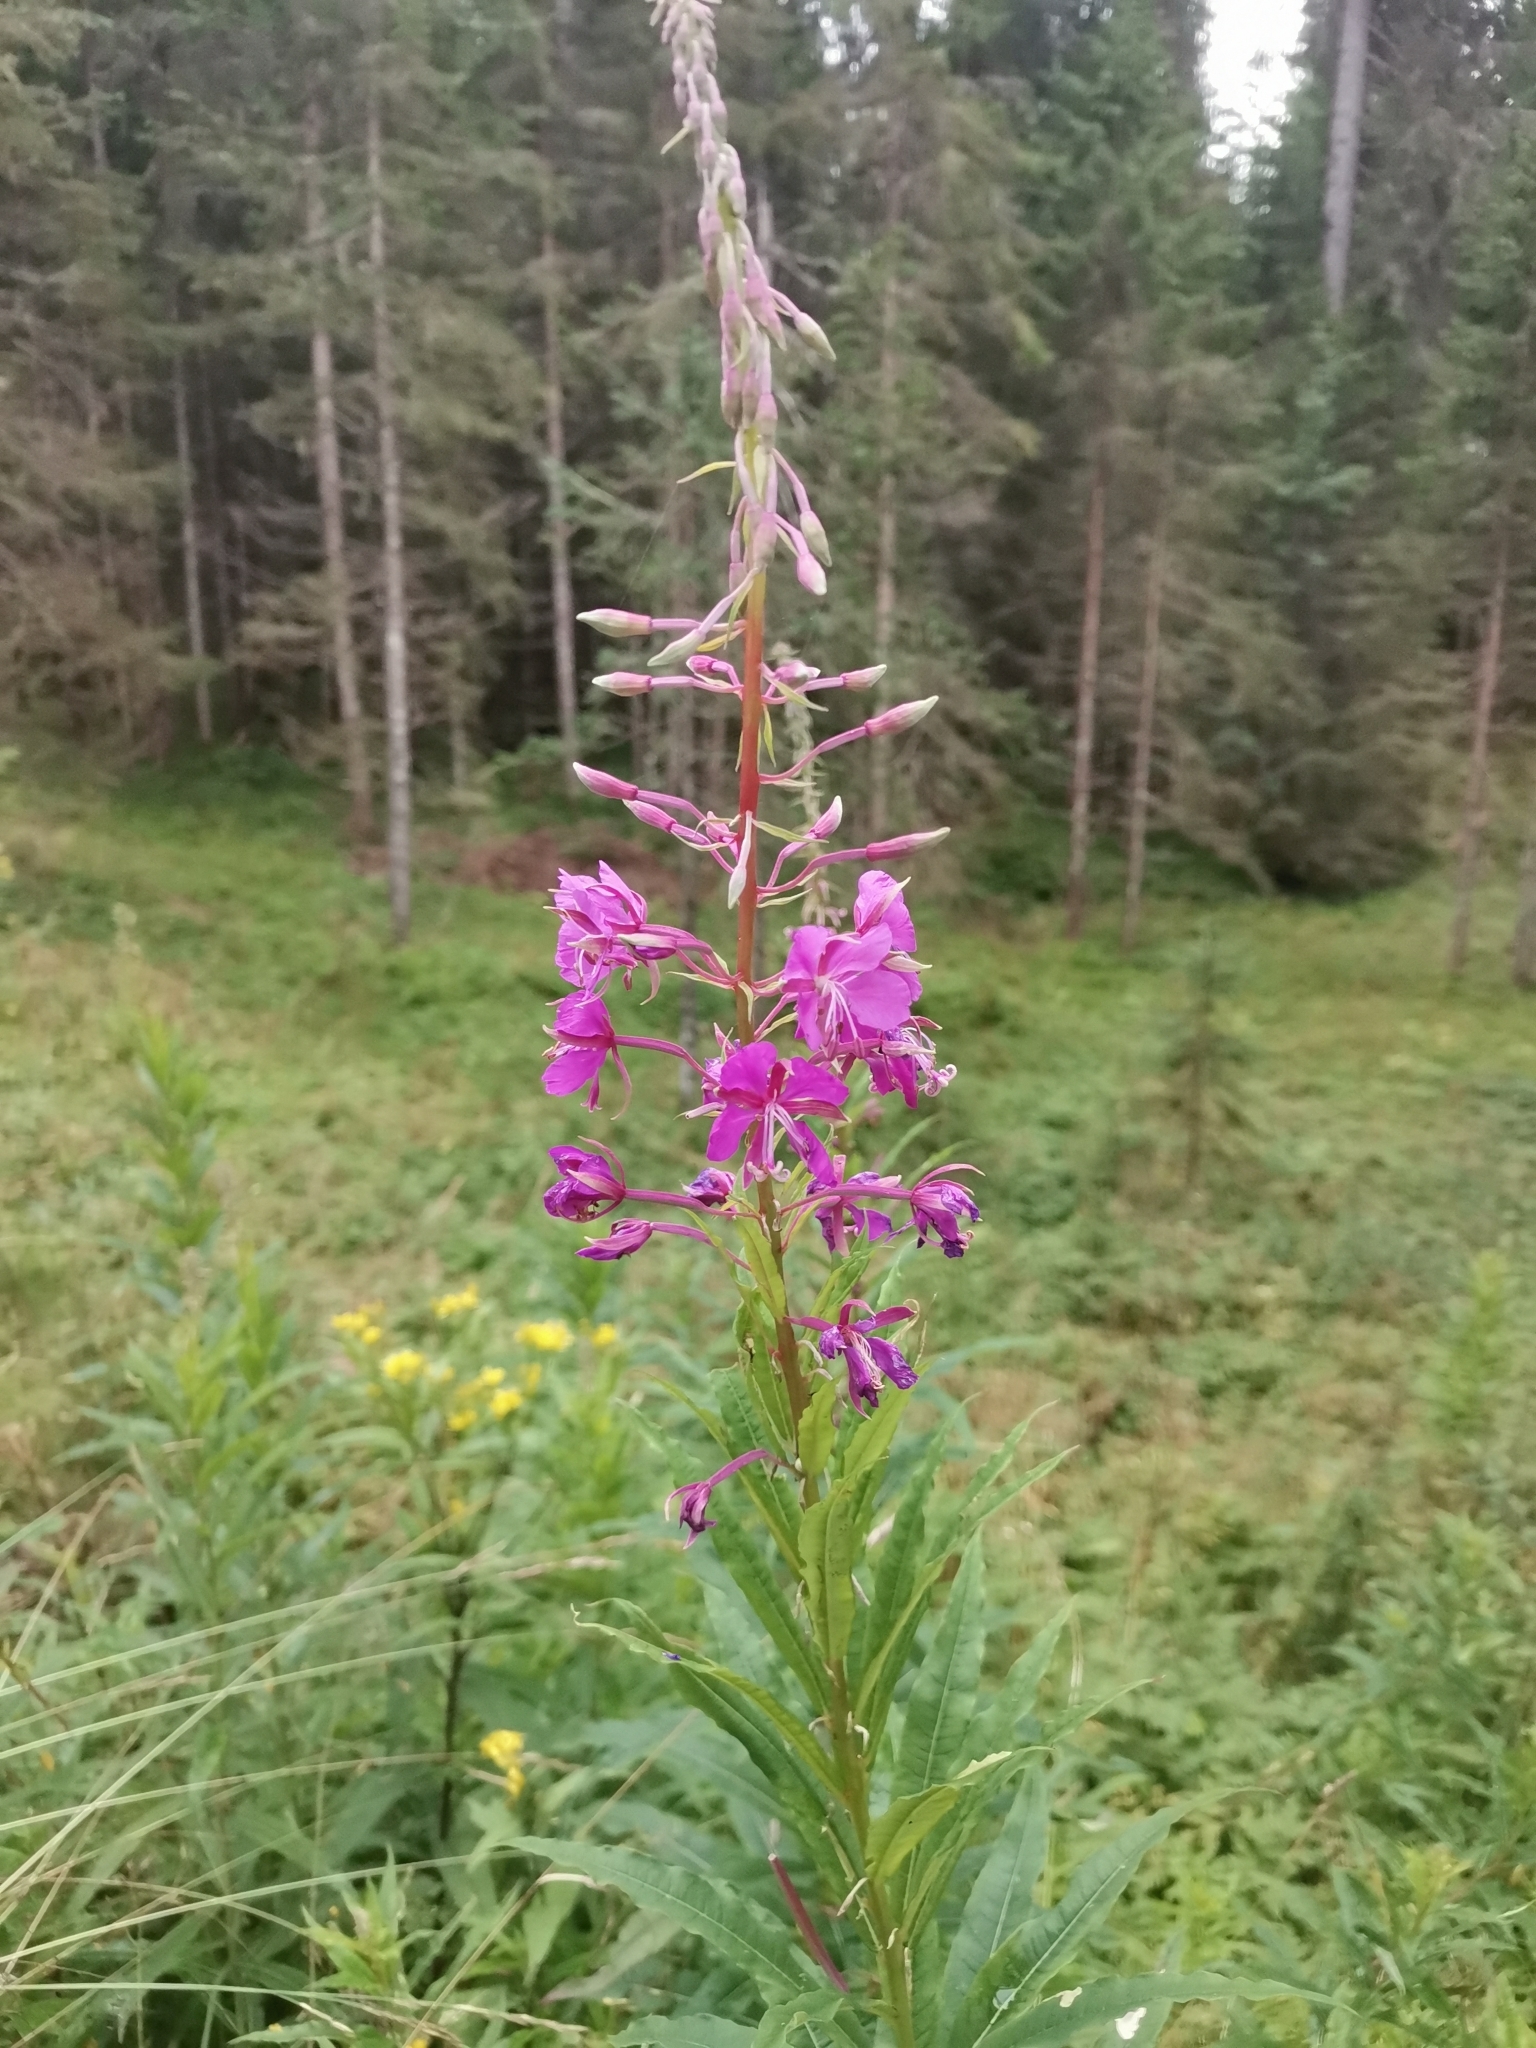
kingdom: Plantae
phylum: Tracheophyta
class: Magnoliopsida
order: Myrtales
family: Onagraceae
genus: Chamaenerion
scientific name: Chamaenerion angustifolium
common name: Fireweed
